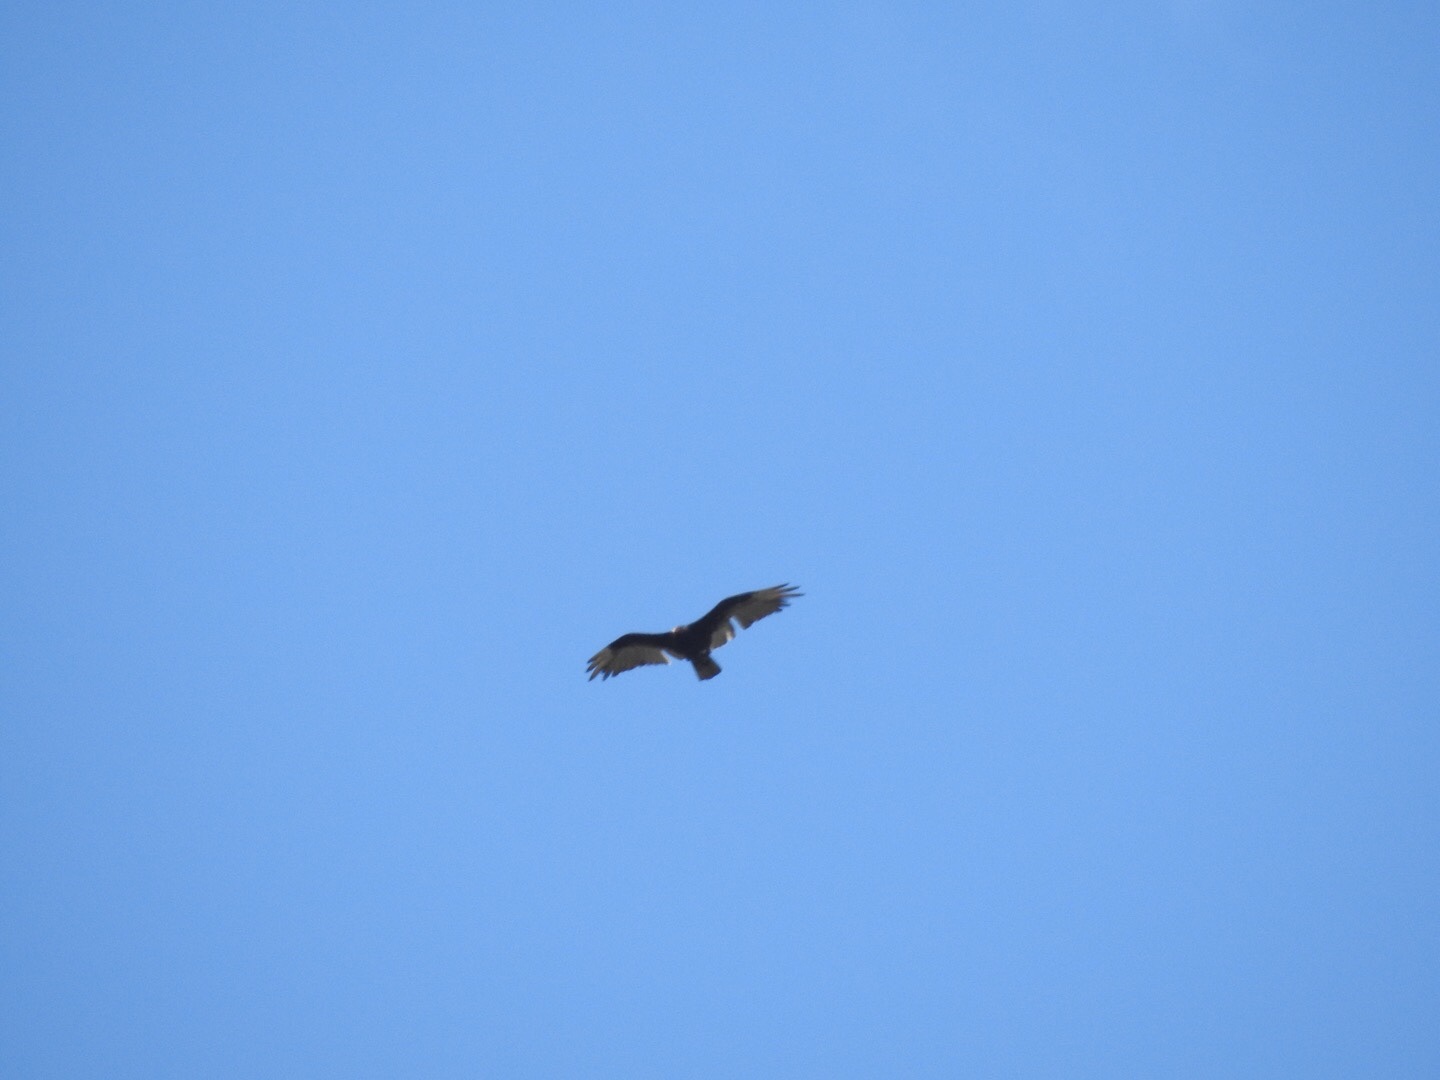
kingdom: Animalia
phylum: Chordata
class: Aves
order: Accipitriformes
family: Cathartidae
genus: Cathartes
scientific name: Cathartes aura
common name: Turkey vulture
